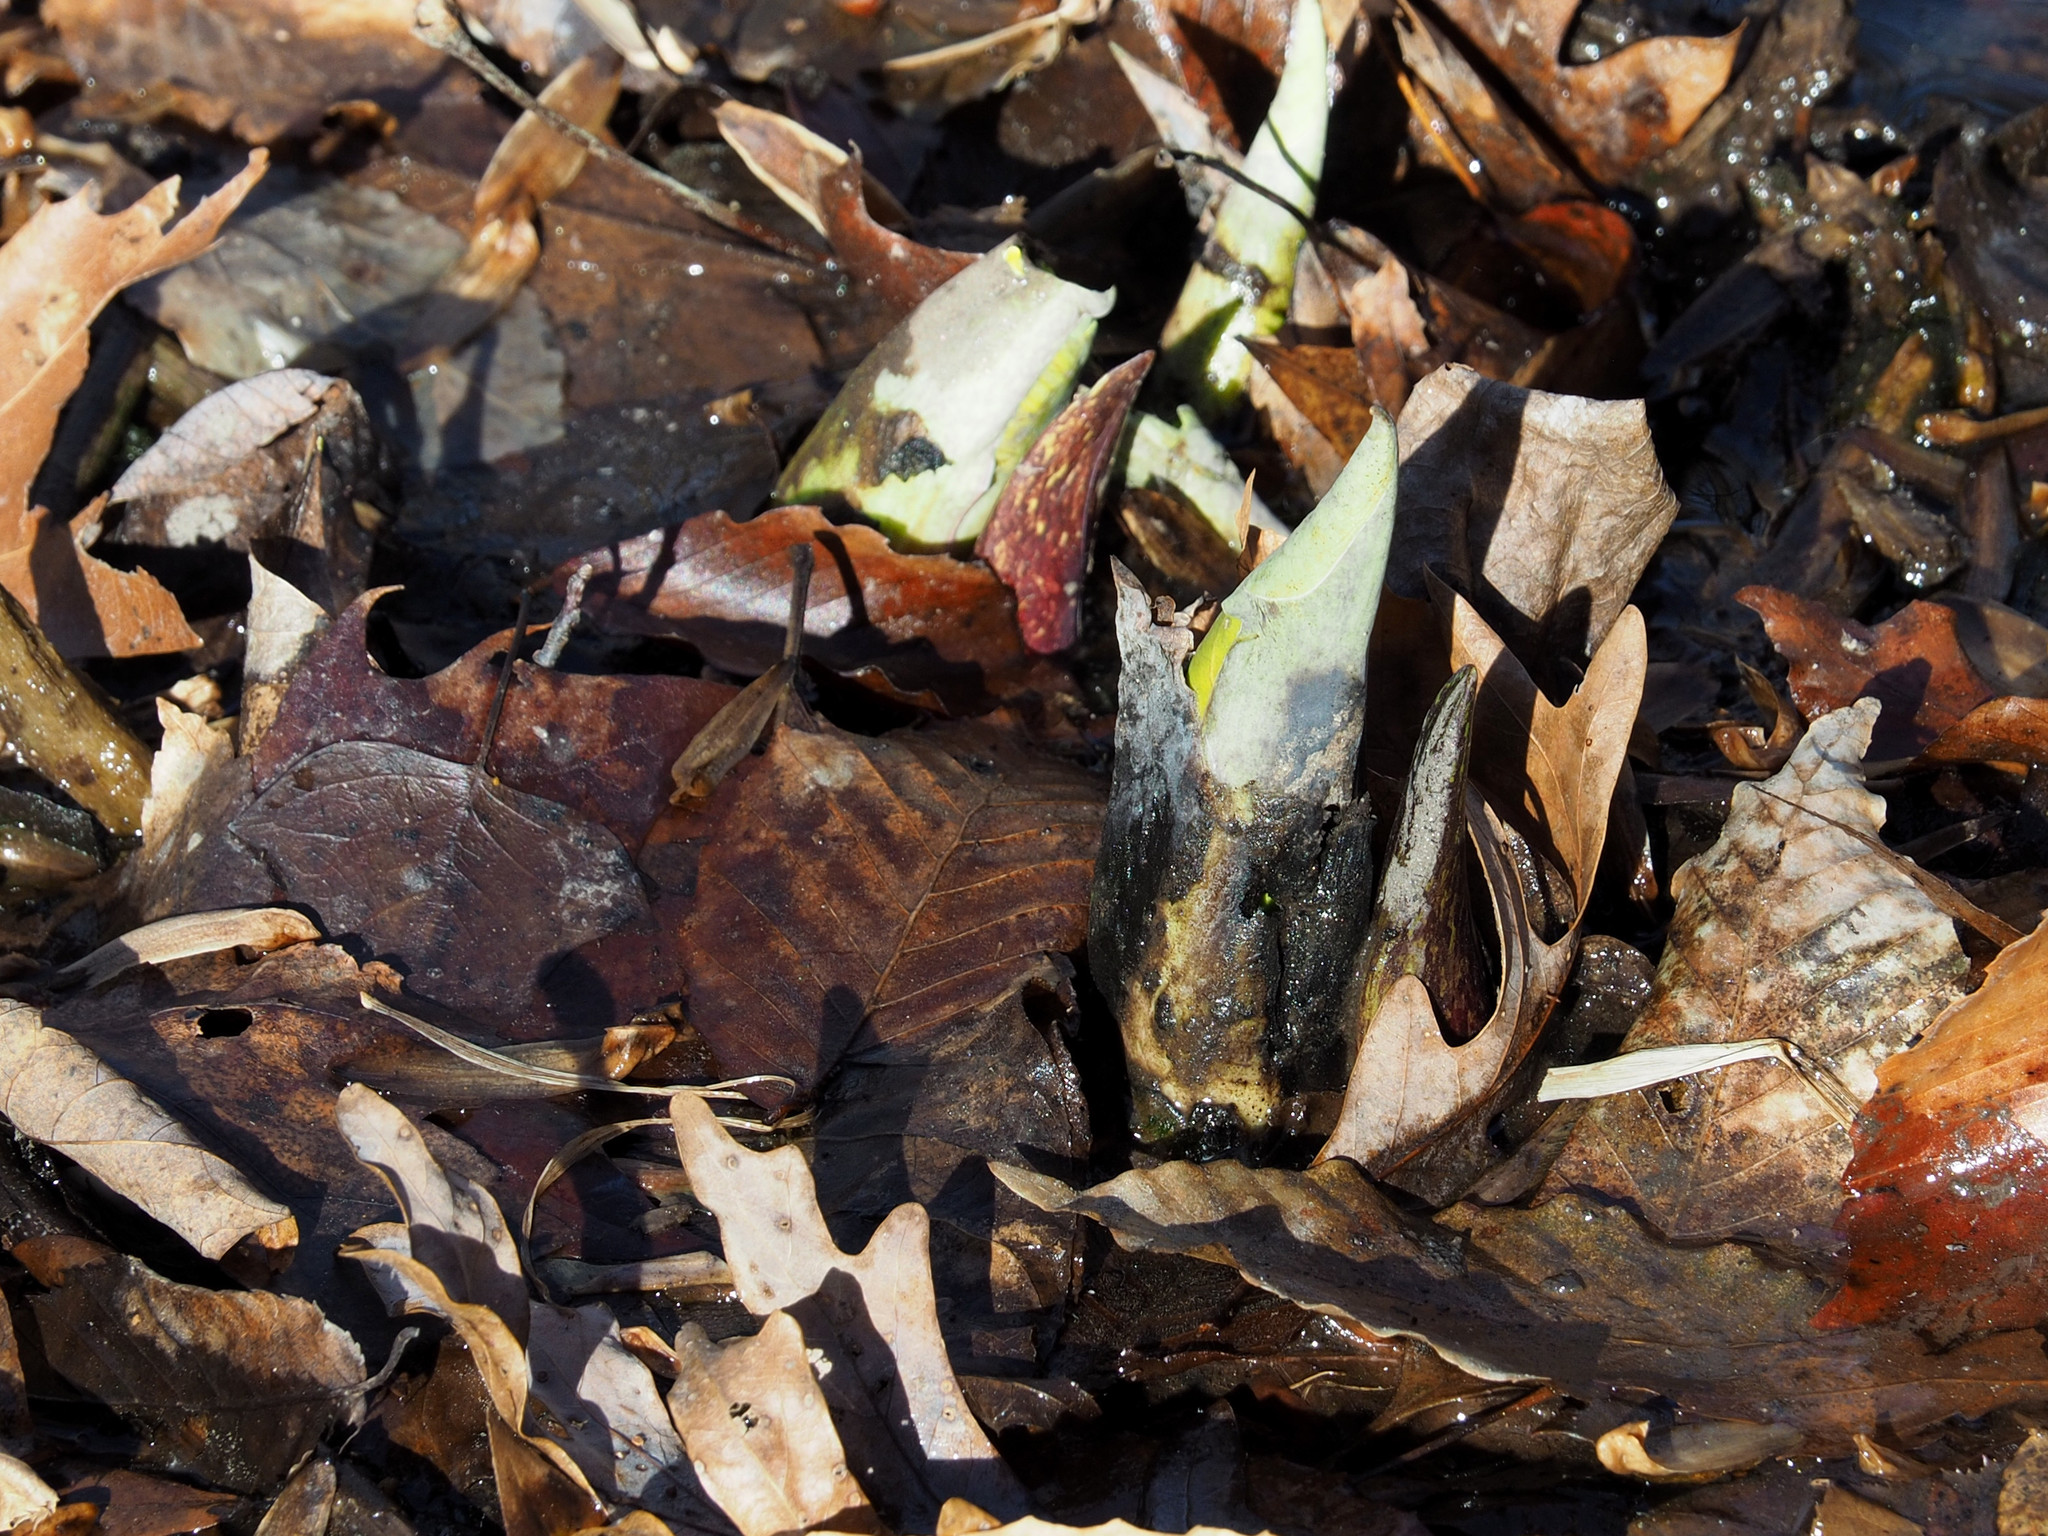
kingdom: Plantae
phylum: Tracheophyta
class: Liliopsida
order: Alismatales
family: Araceae
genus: Symplocarpus
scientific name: Symplocarpus foetidus
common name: Eastern skunk cabbage
